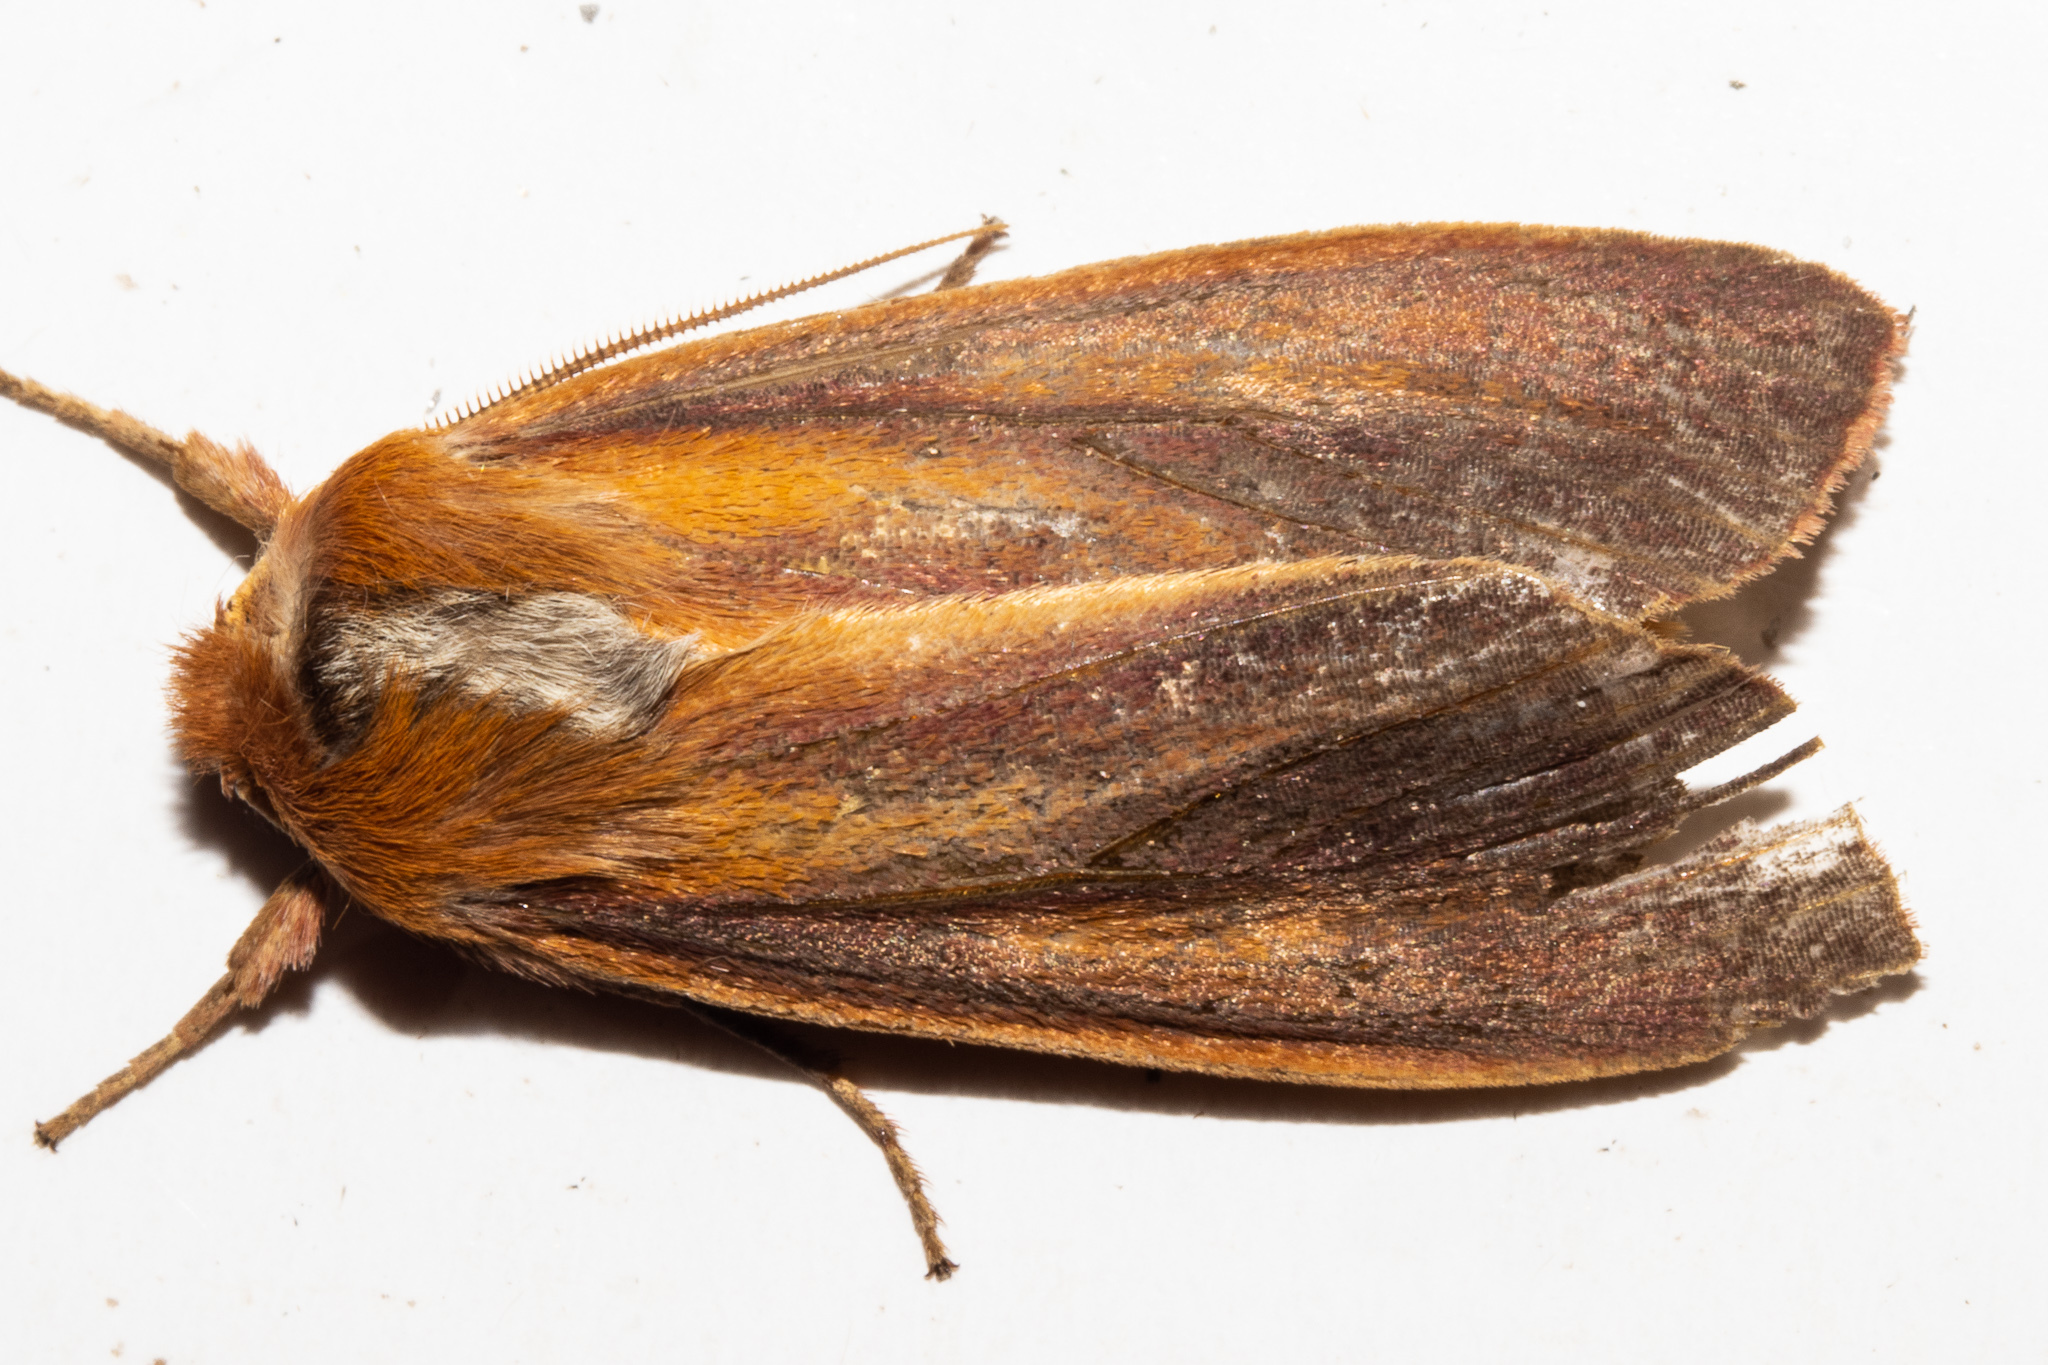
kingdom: Animalia
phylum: Arthropoda
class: Insecta
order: Lepidoptera
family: Noctuidae
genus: Ichneutica
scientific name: Ichneutica
